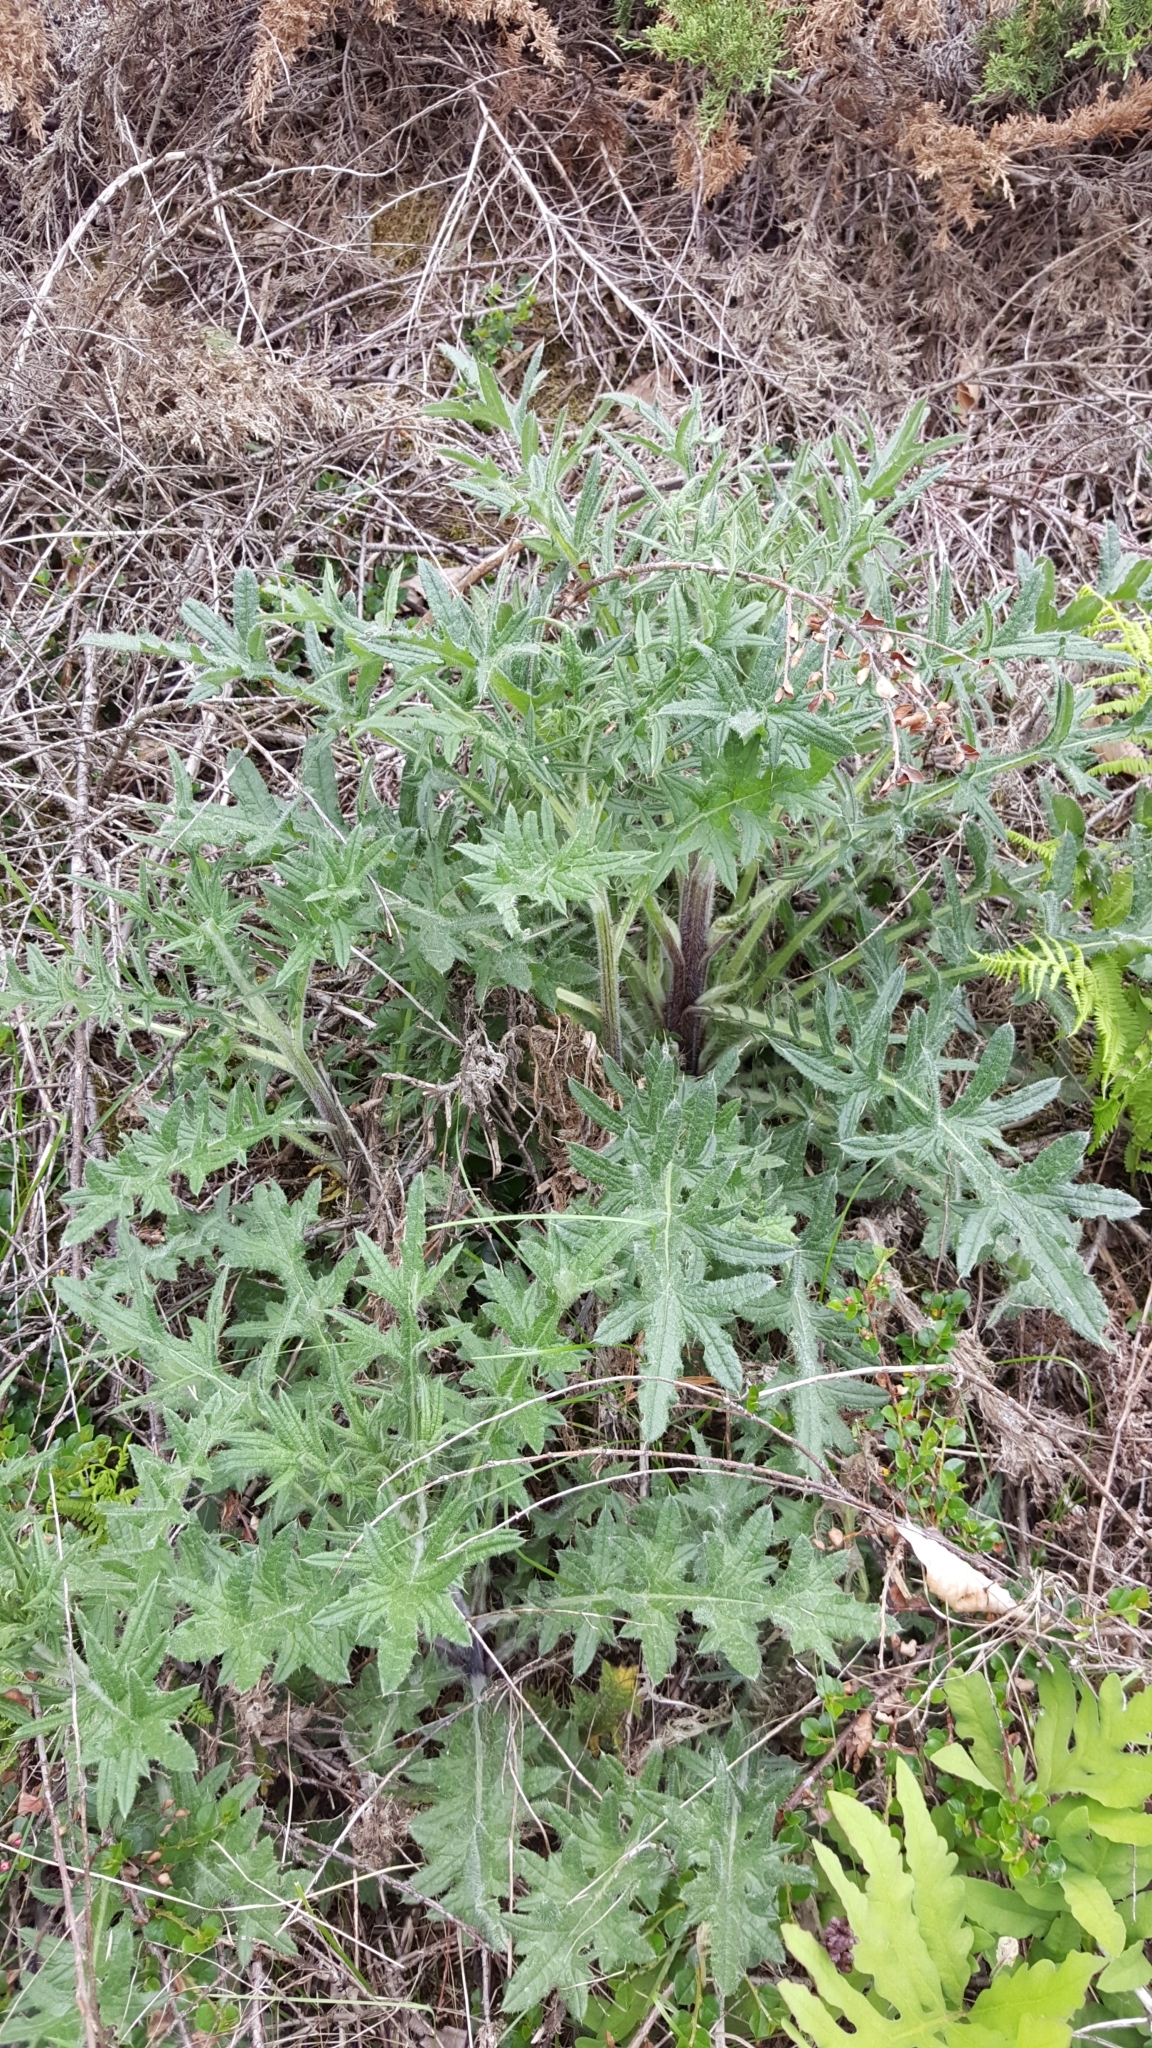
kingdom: Plantae
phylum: Tracheophyta
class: Magnoliopsida
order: Asterales
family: Asteraceae
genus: Cirsium
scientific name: Cirsium vulgare
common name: Bull thistle
